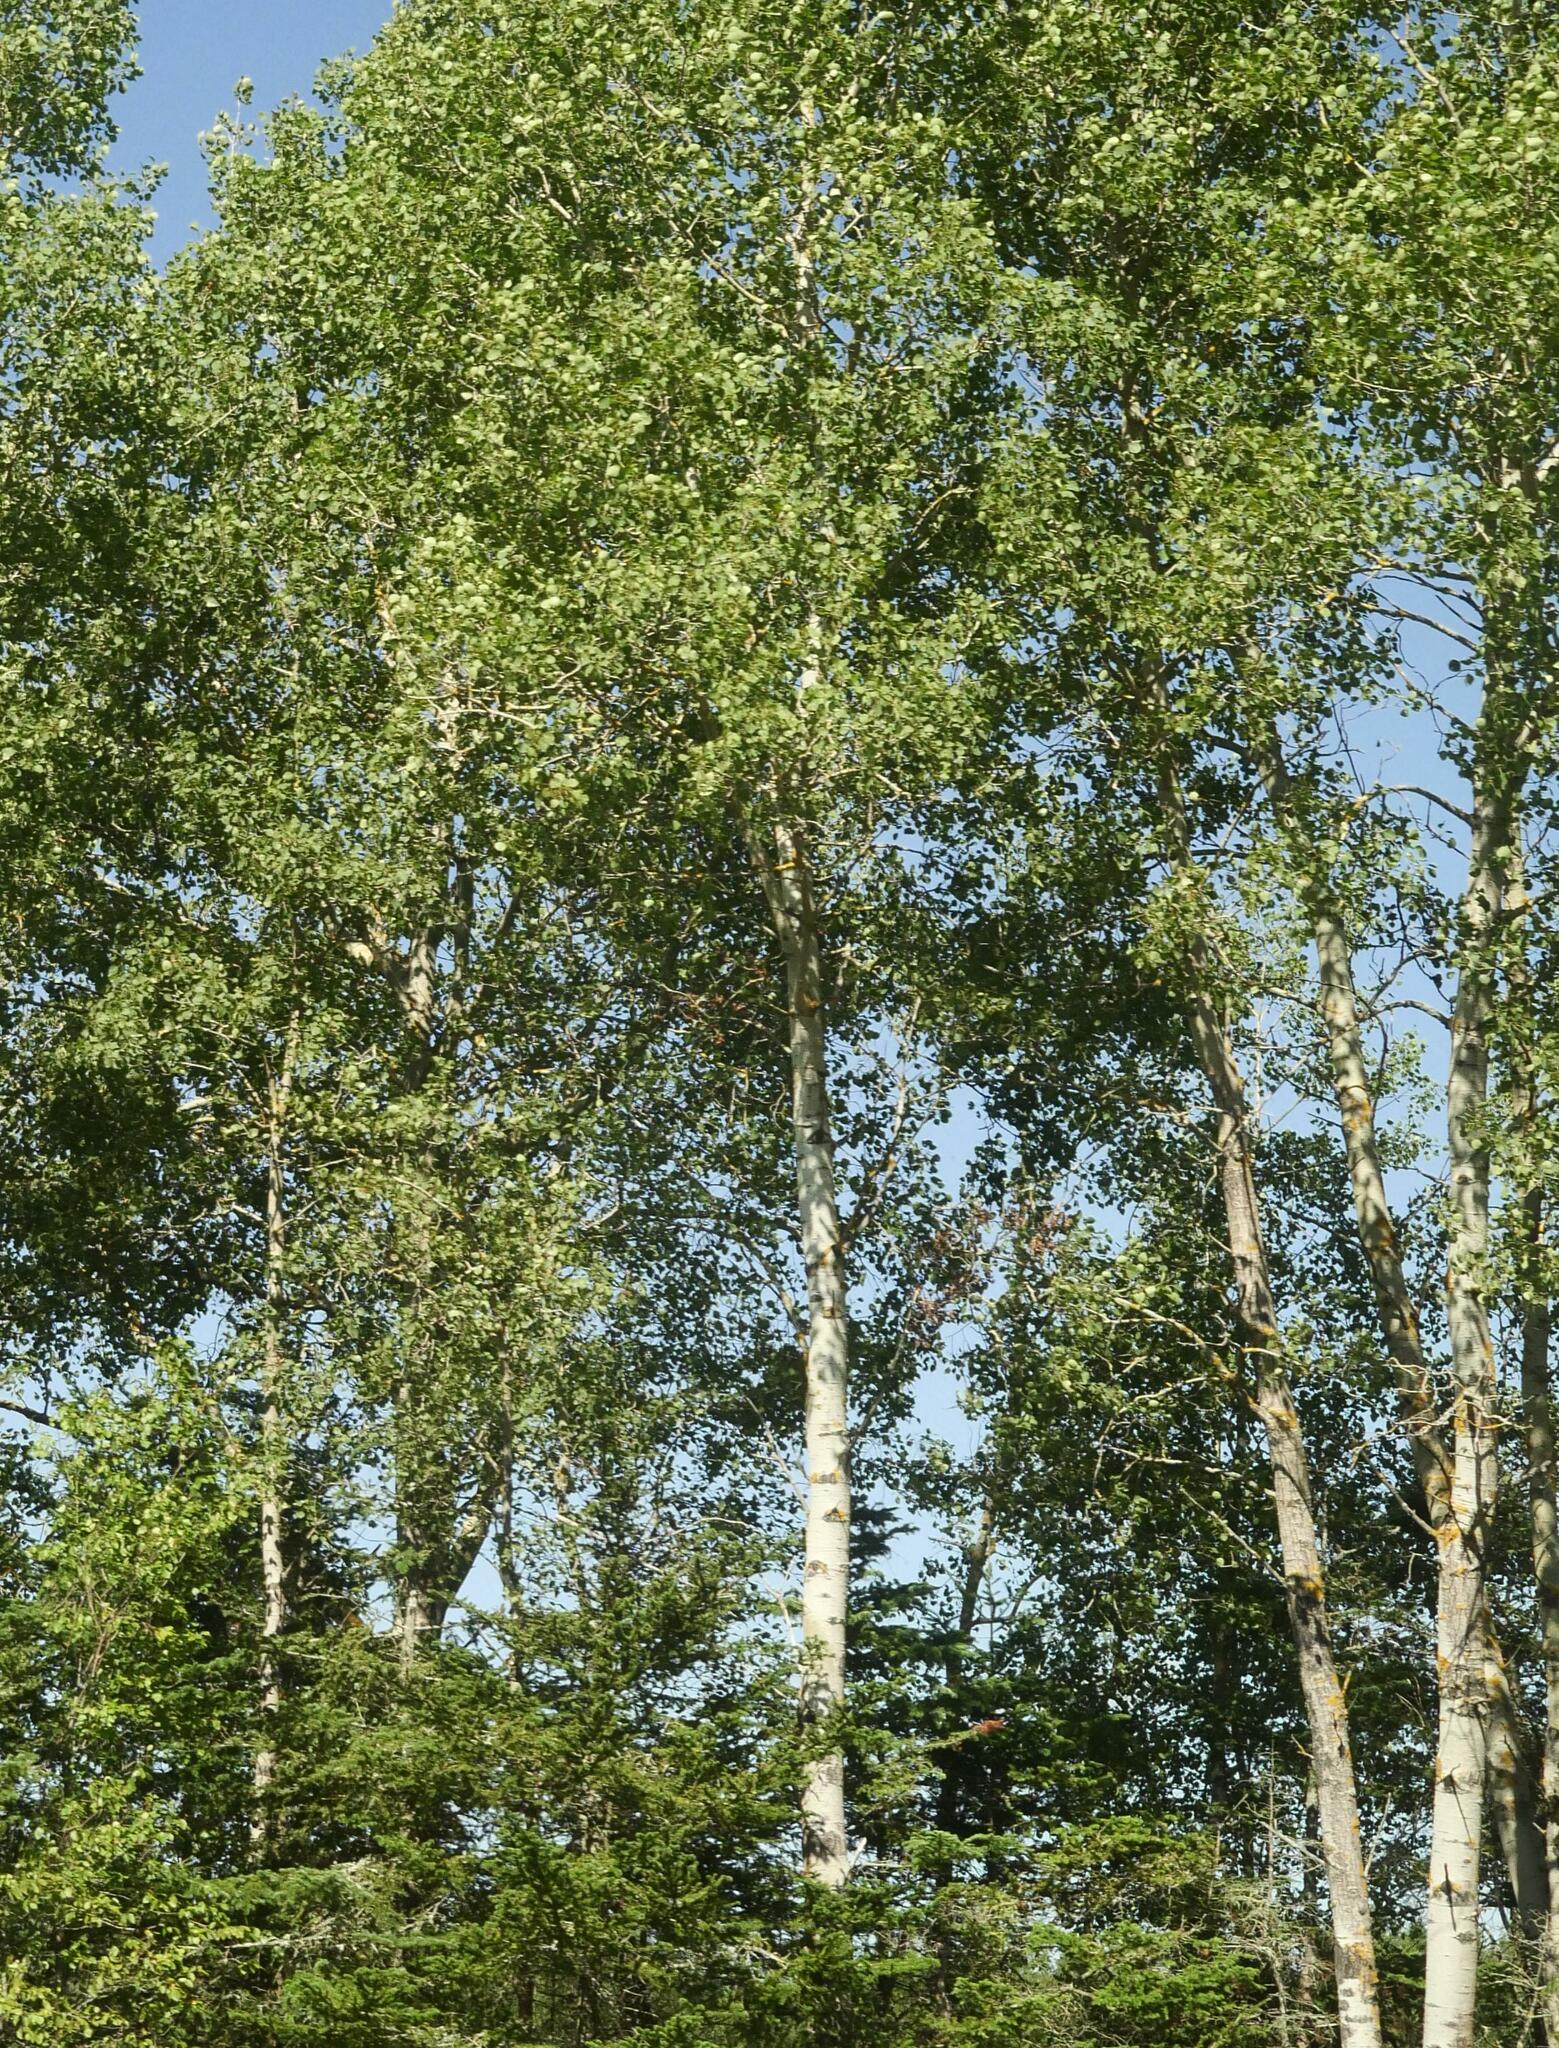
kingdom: Plantae
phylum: Tracheophyta
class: Magnoliopsida
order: Malpighiales
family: Salicaceae
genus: Populus
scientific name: Populus tremuloides
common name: Quaking aspen
